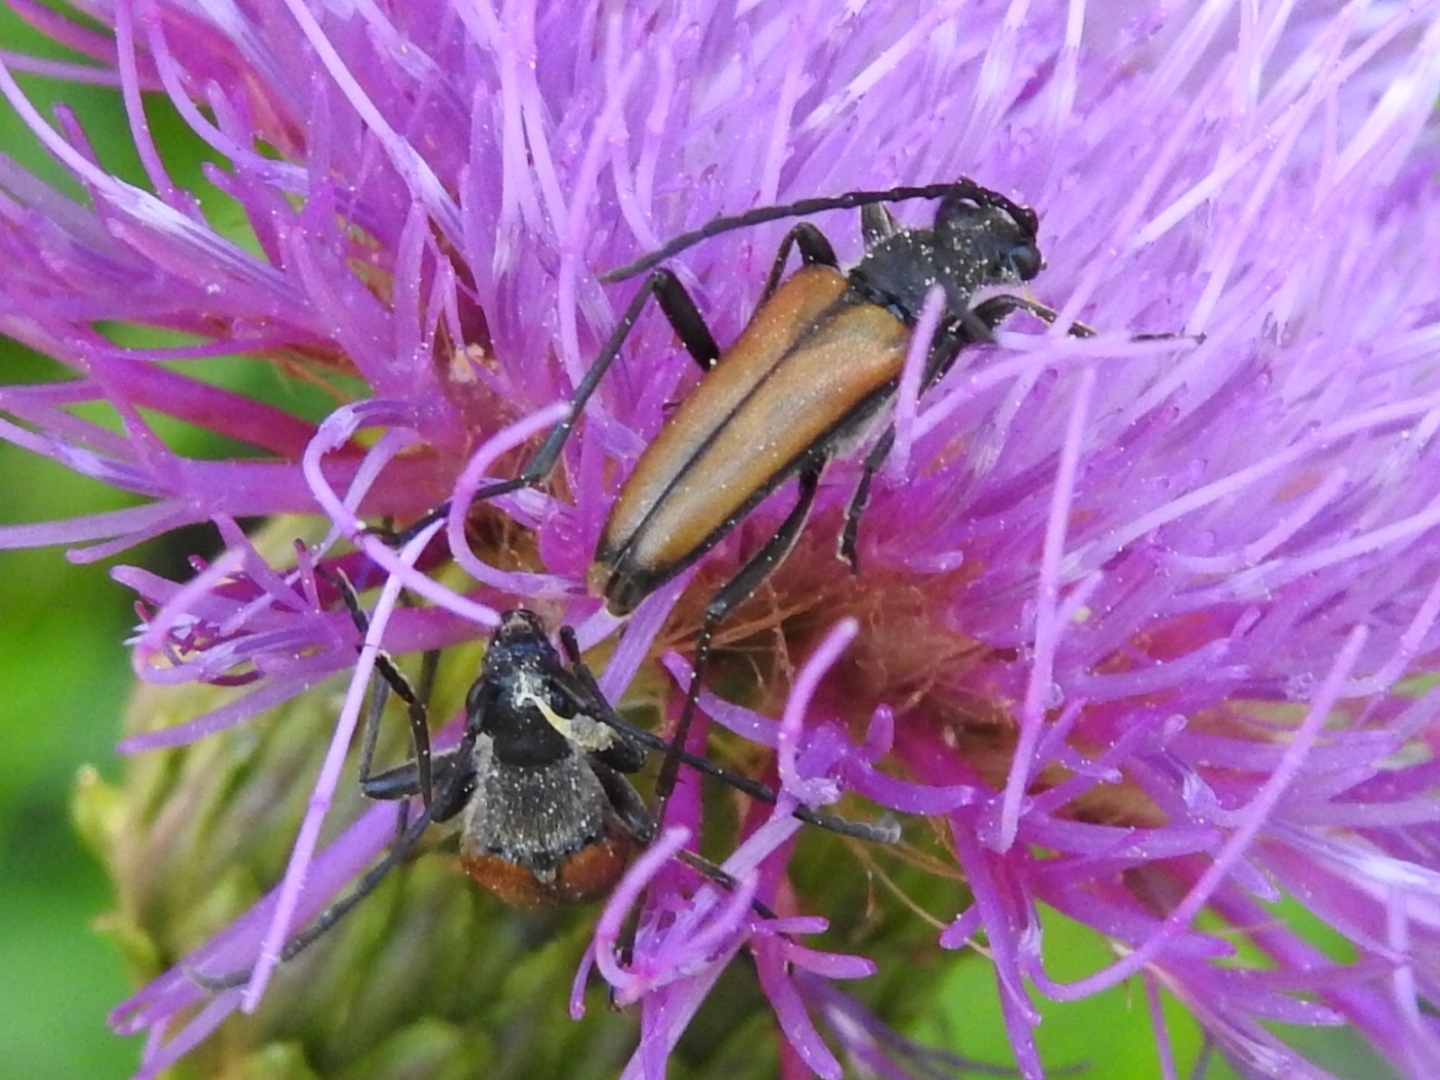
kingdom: Animalia
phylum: Arthropoda
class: Insecta
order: Coleoptera
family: Cerambycidae
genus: Anastrangalia
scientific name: Anastrangalia dubia
